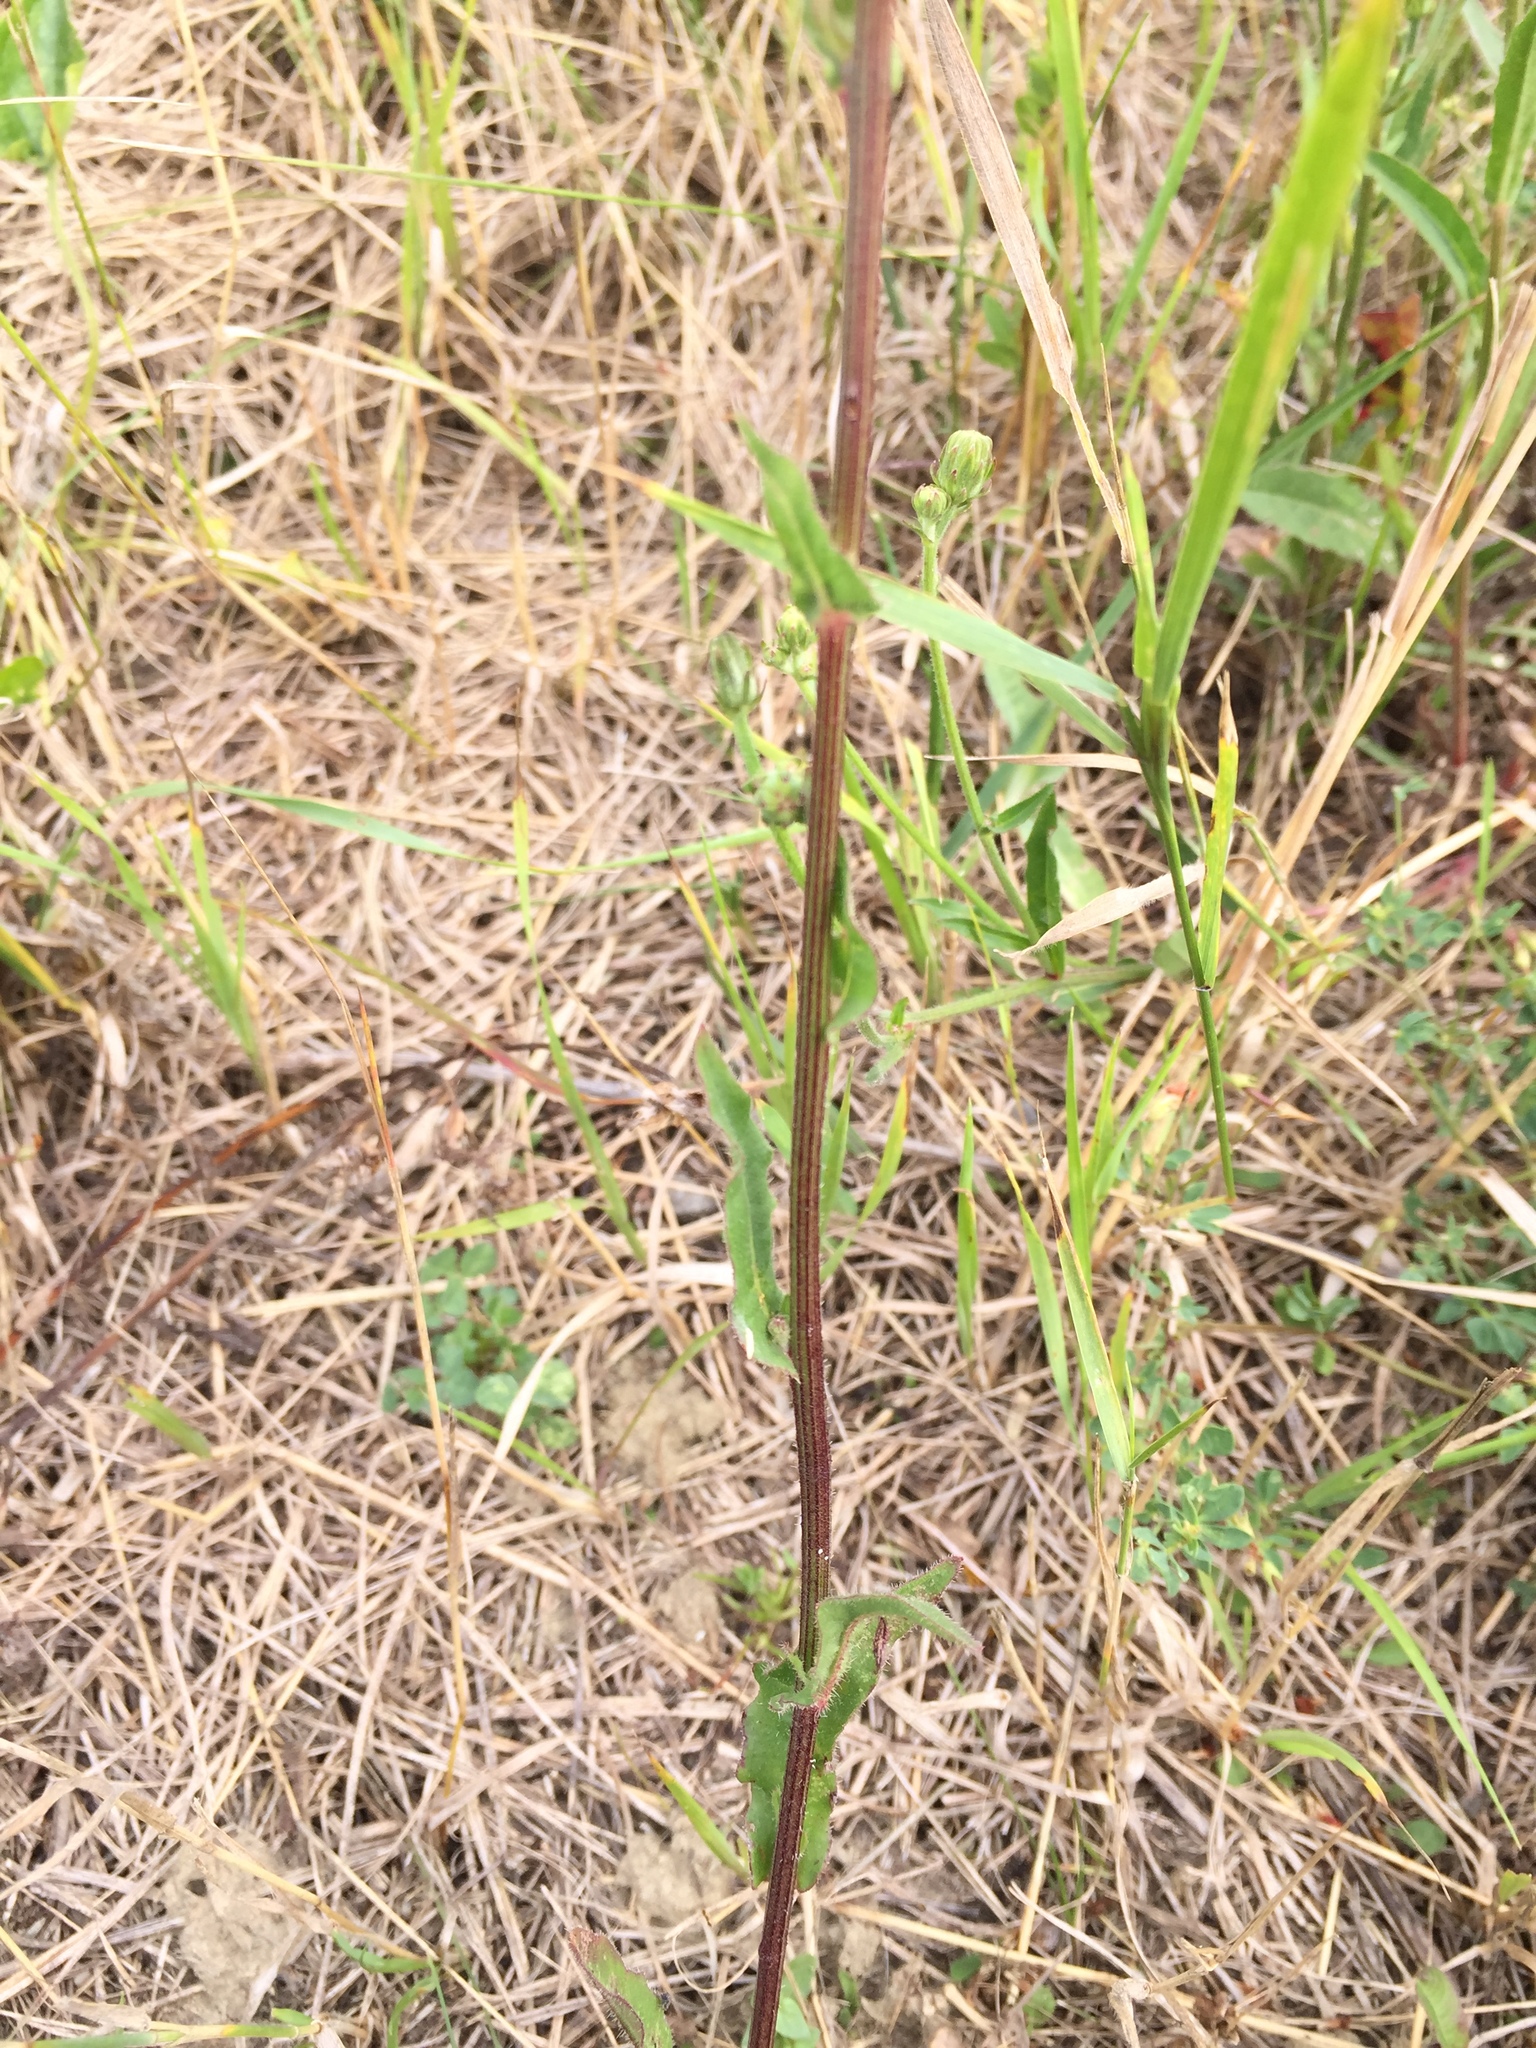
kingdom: Plantae
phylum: Tracheophyta
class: Magnoliopsida
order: Asterales
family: Asteraceae
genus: Picris
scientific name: Picris hieracioides
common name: Hawkweed oxtongue
